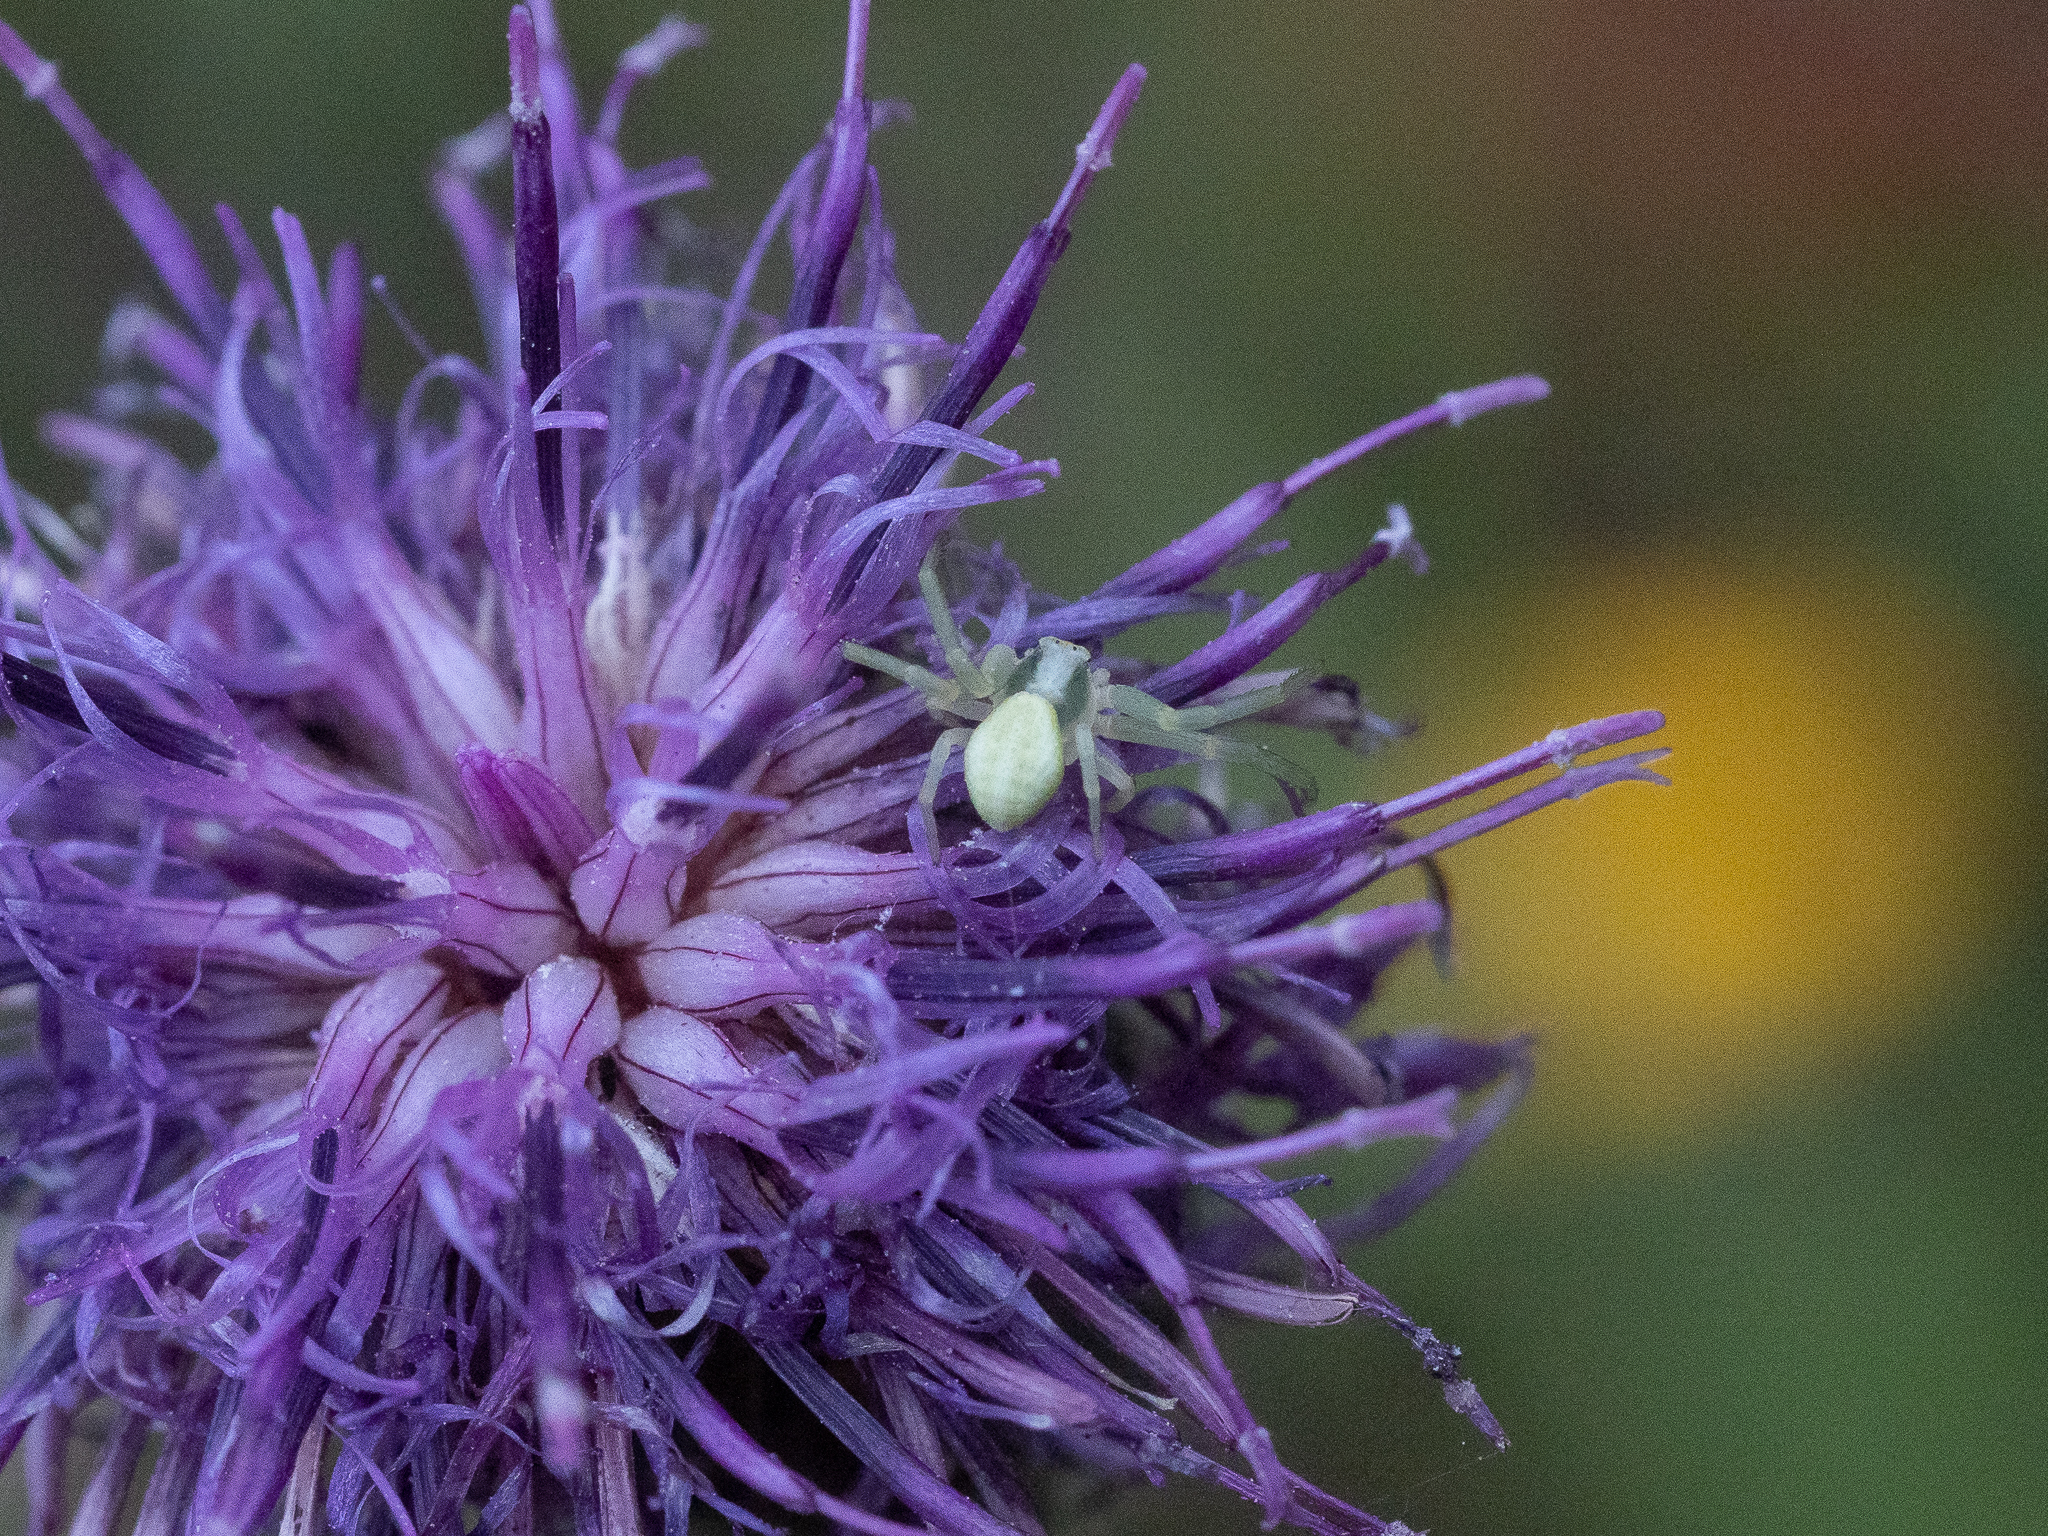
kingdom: Animalia
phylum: Arthropoda
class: Arachnida
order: Araneae
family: Thomisidae
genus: Misumena
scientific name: Misumena vatia
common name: Goldenrod crab spider
